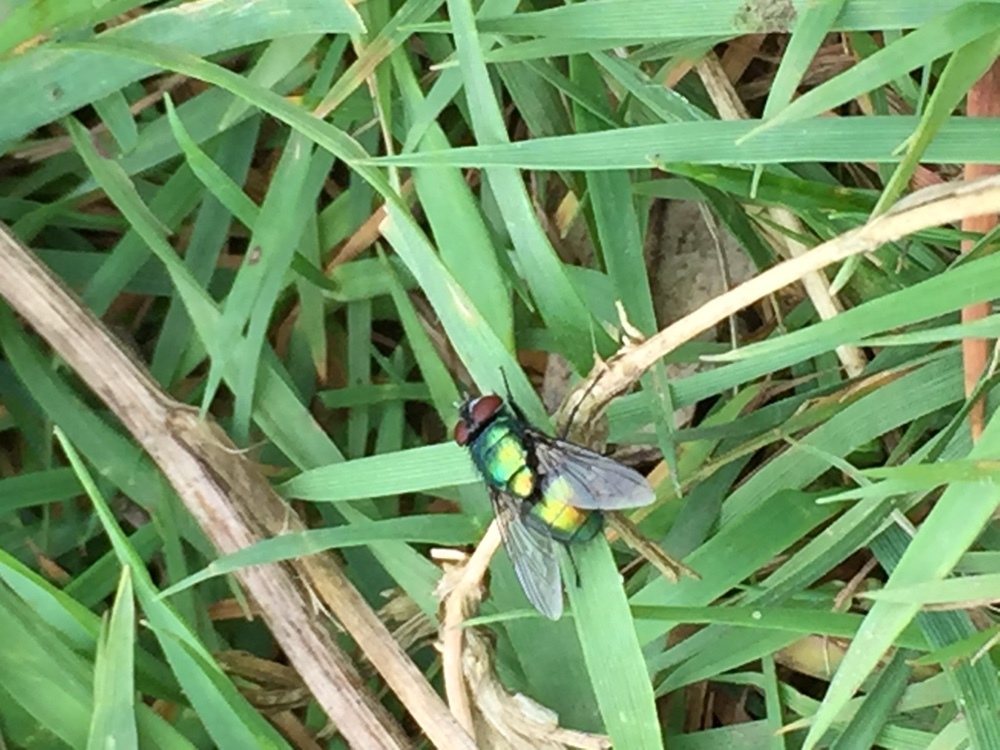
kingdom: Animalia
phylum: Arthropoda
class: Insecta
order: Diptera
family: Calliphoridae
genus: Lucilia
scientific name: Lucilia
